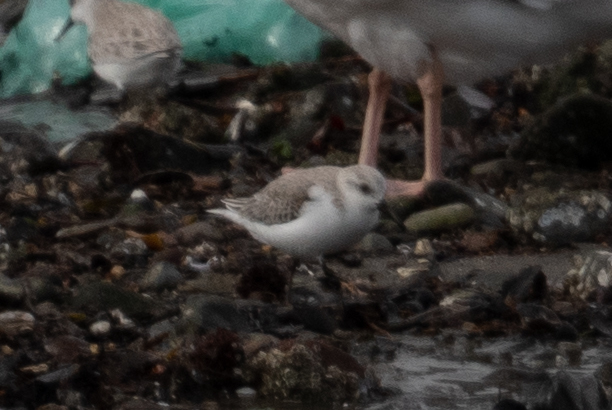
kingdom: Animalia
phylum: Chordata
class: Aves
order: Charadriiformes
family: Scolopacidae
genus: Calidris
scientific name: Calidris alba
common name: Sanderling
